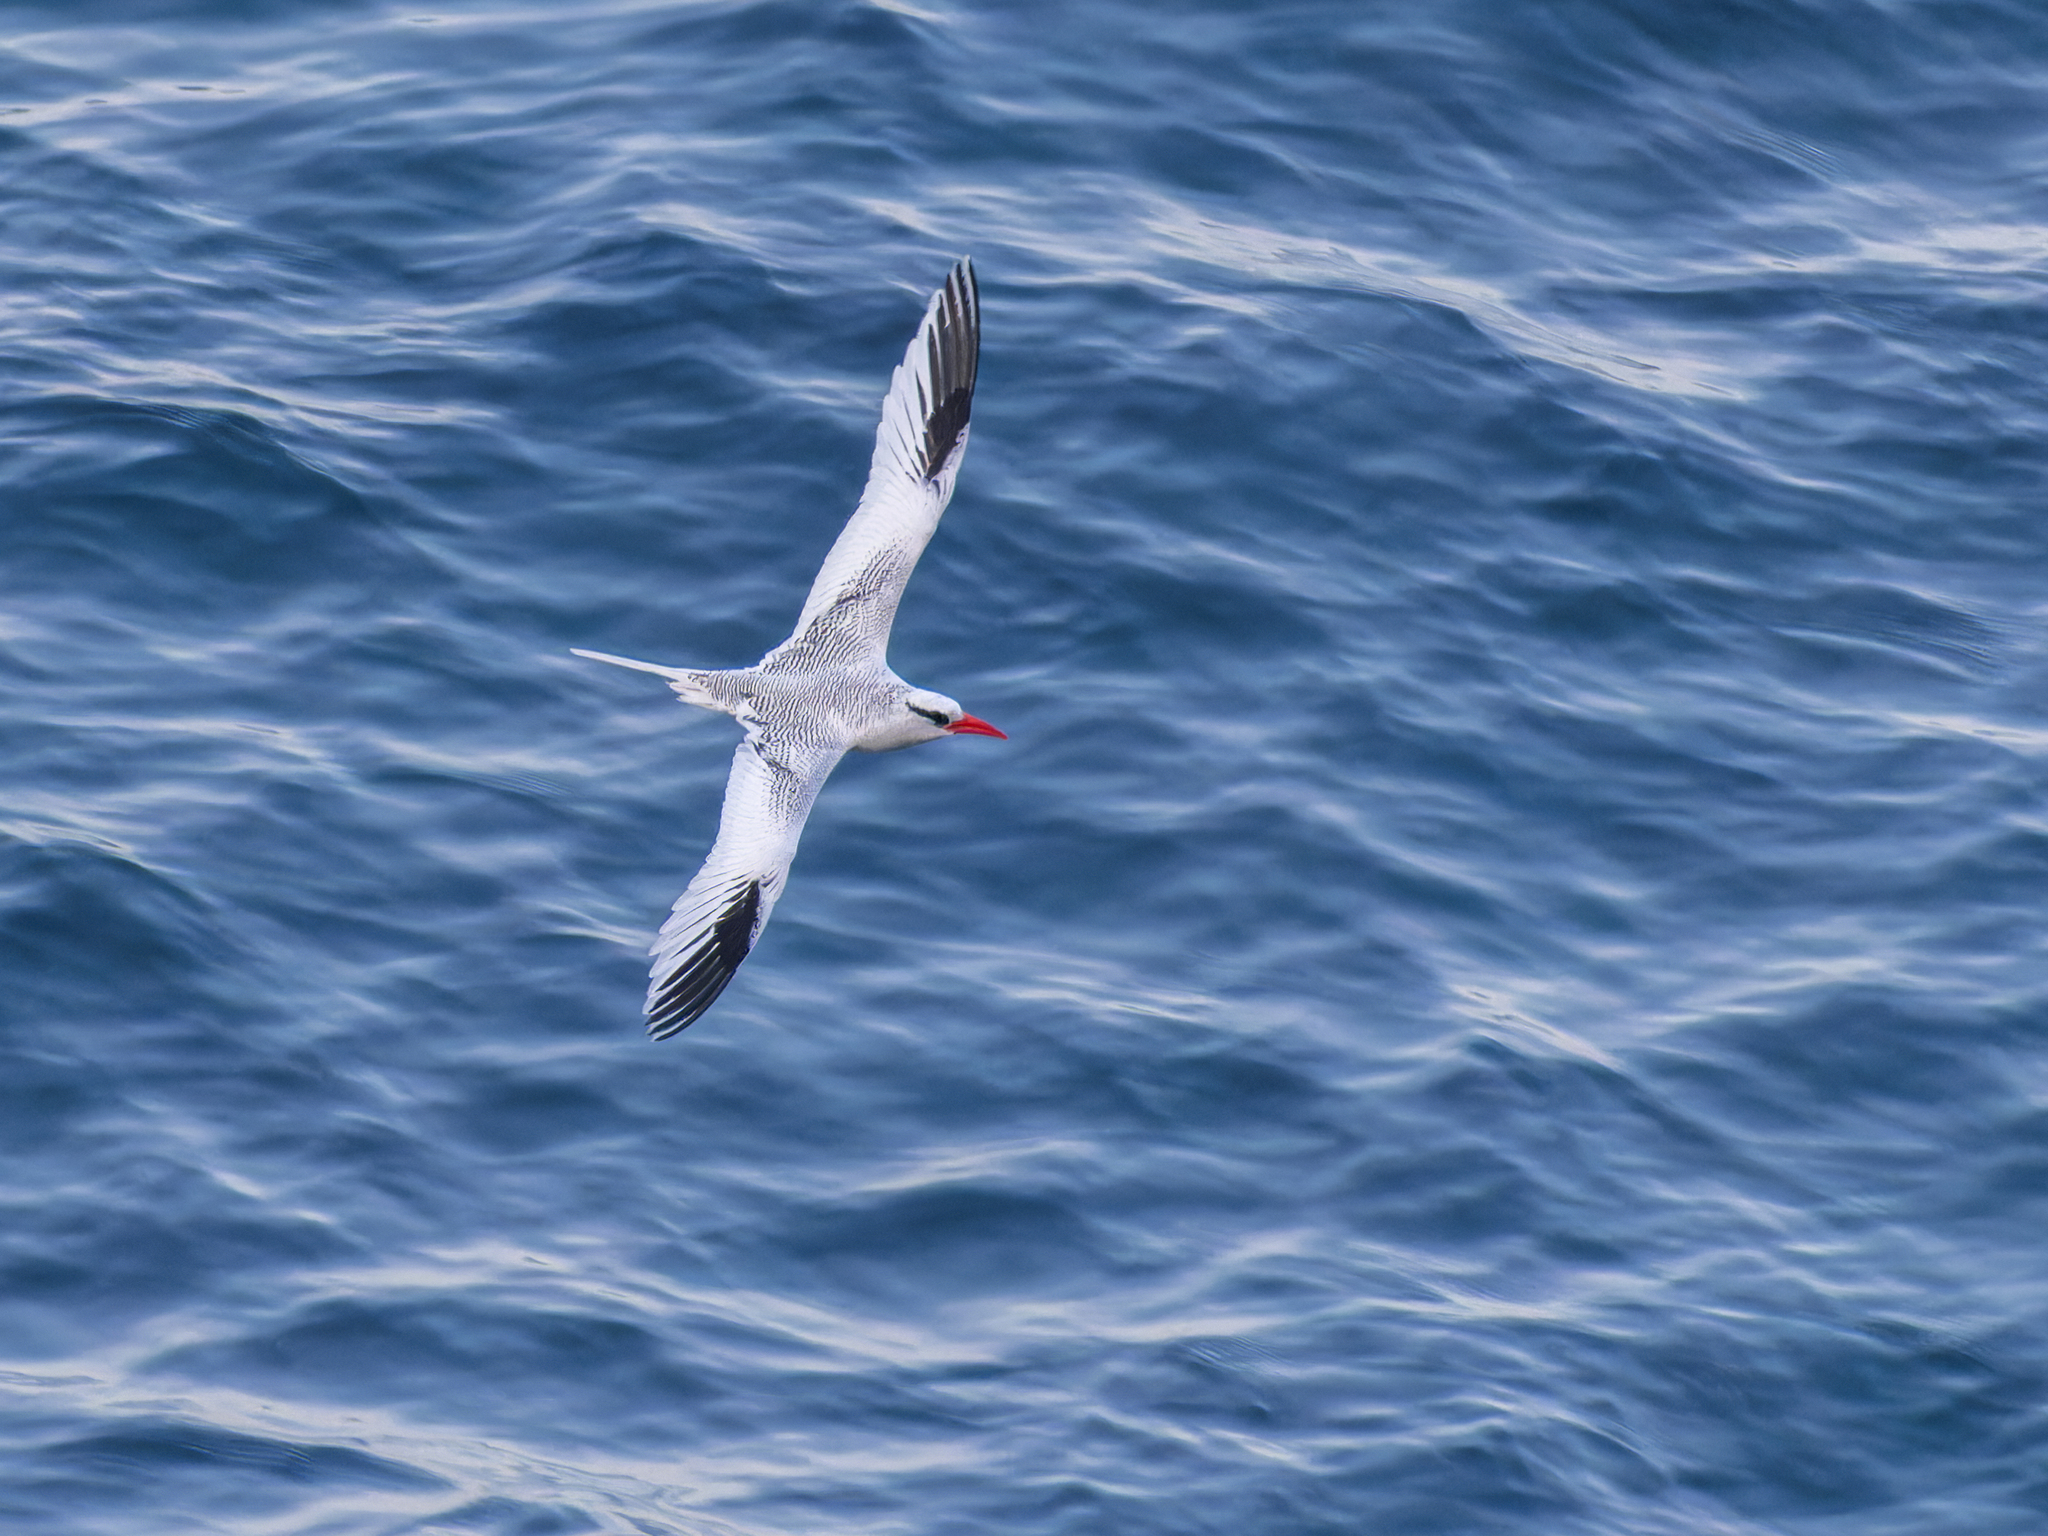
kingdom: Animalia
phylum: Chordata
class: Aves
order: Phaethontiformes
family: Phaethontidae
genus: Phaethon
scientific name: Phaethon aethereus
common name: Red-billed tropicbird
